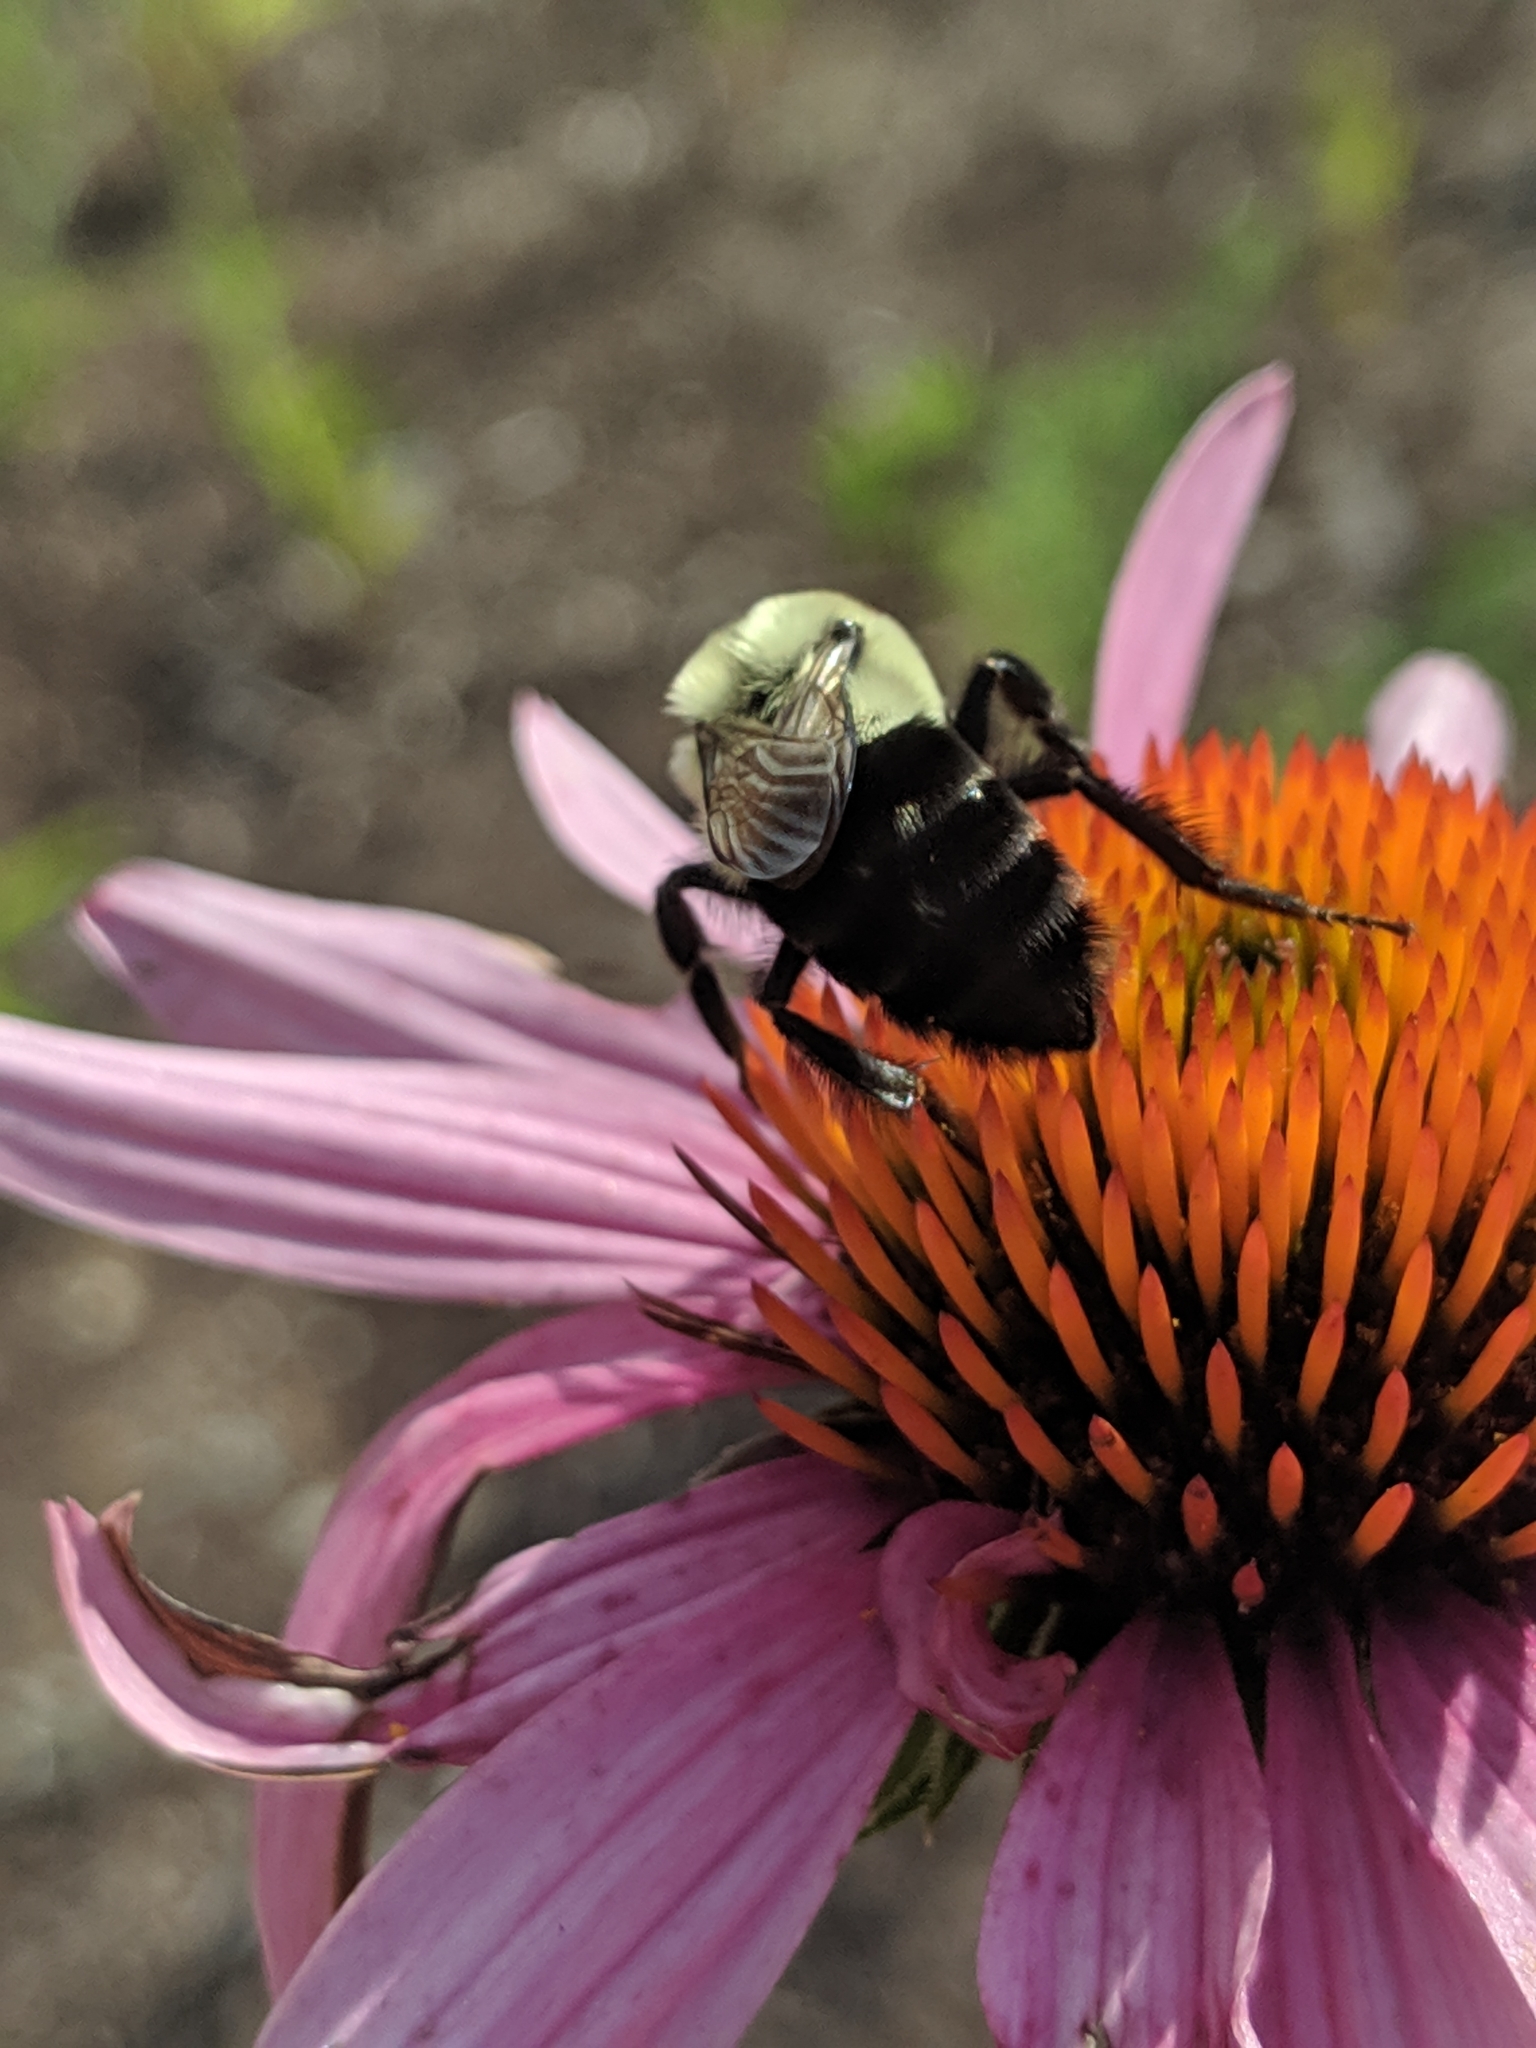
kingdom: Animalia
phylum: Arthropoda
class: Insecta
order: Hymenoptera
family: Apidae
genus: Bombus
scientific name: Bombus impatiens
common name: Common eastern bumble bee
